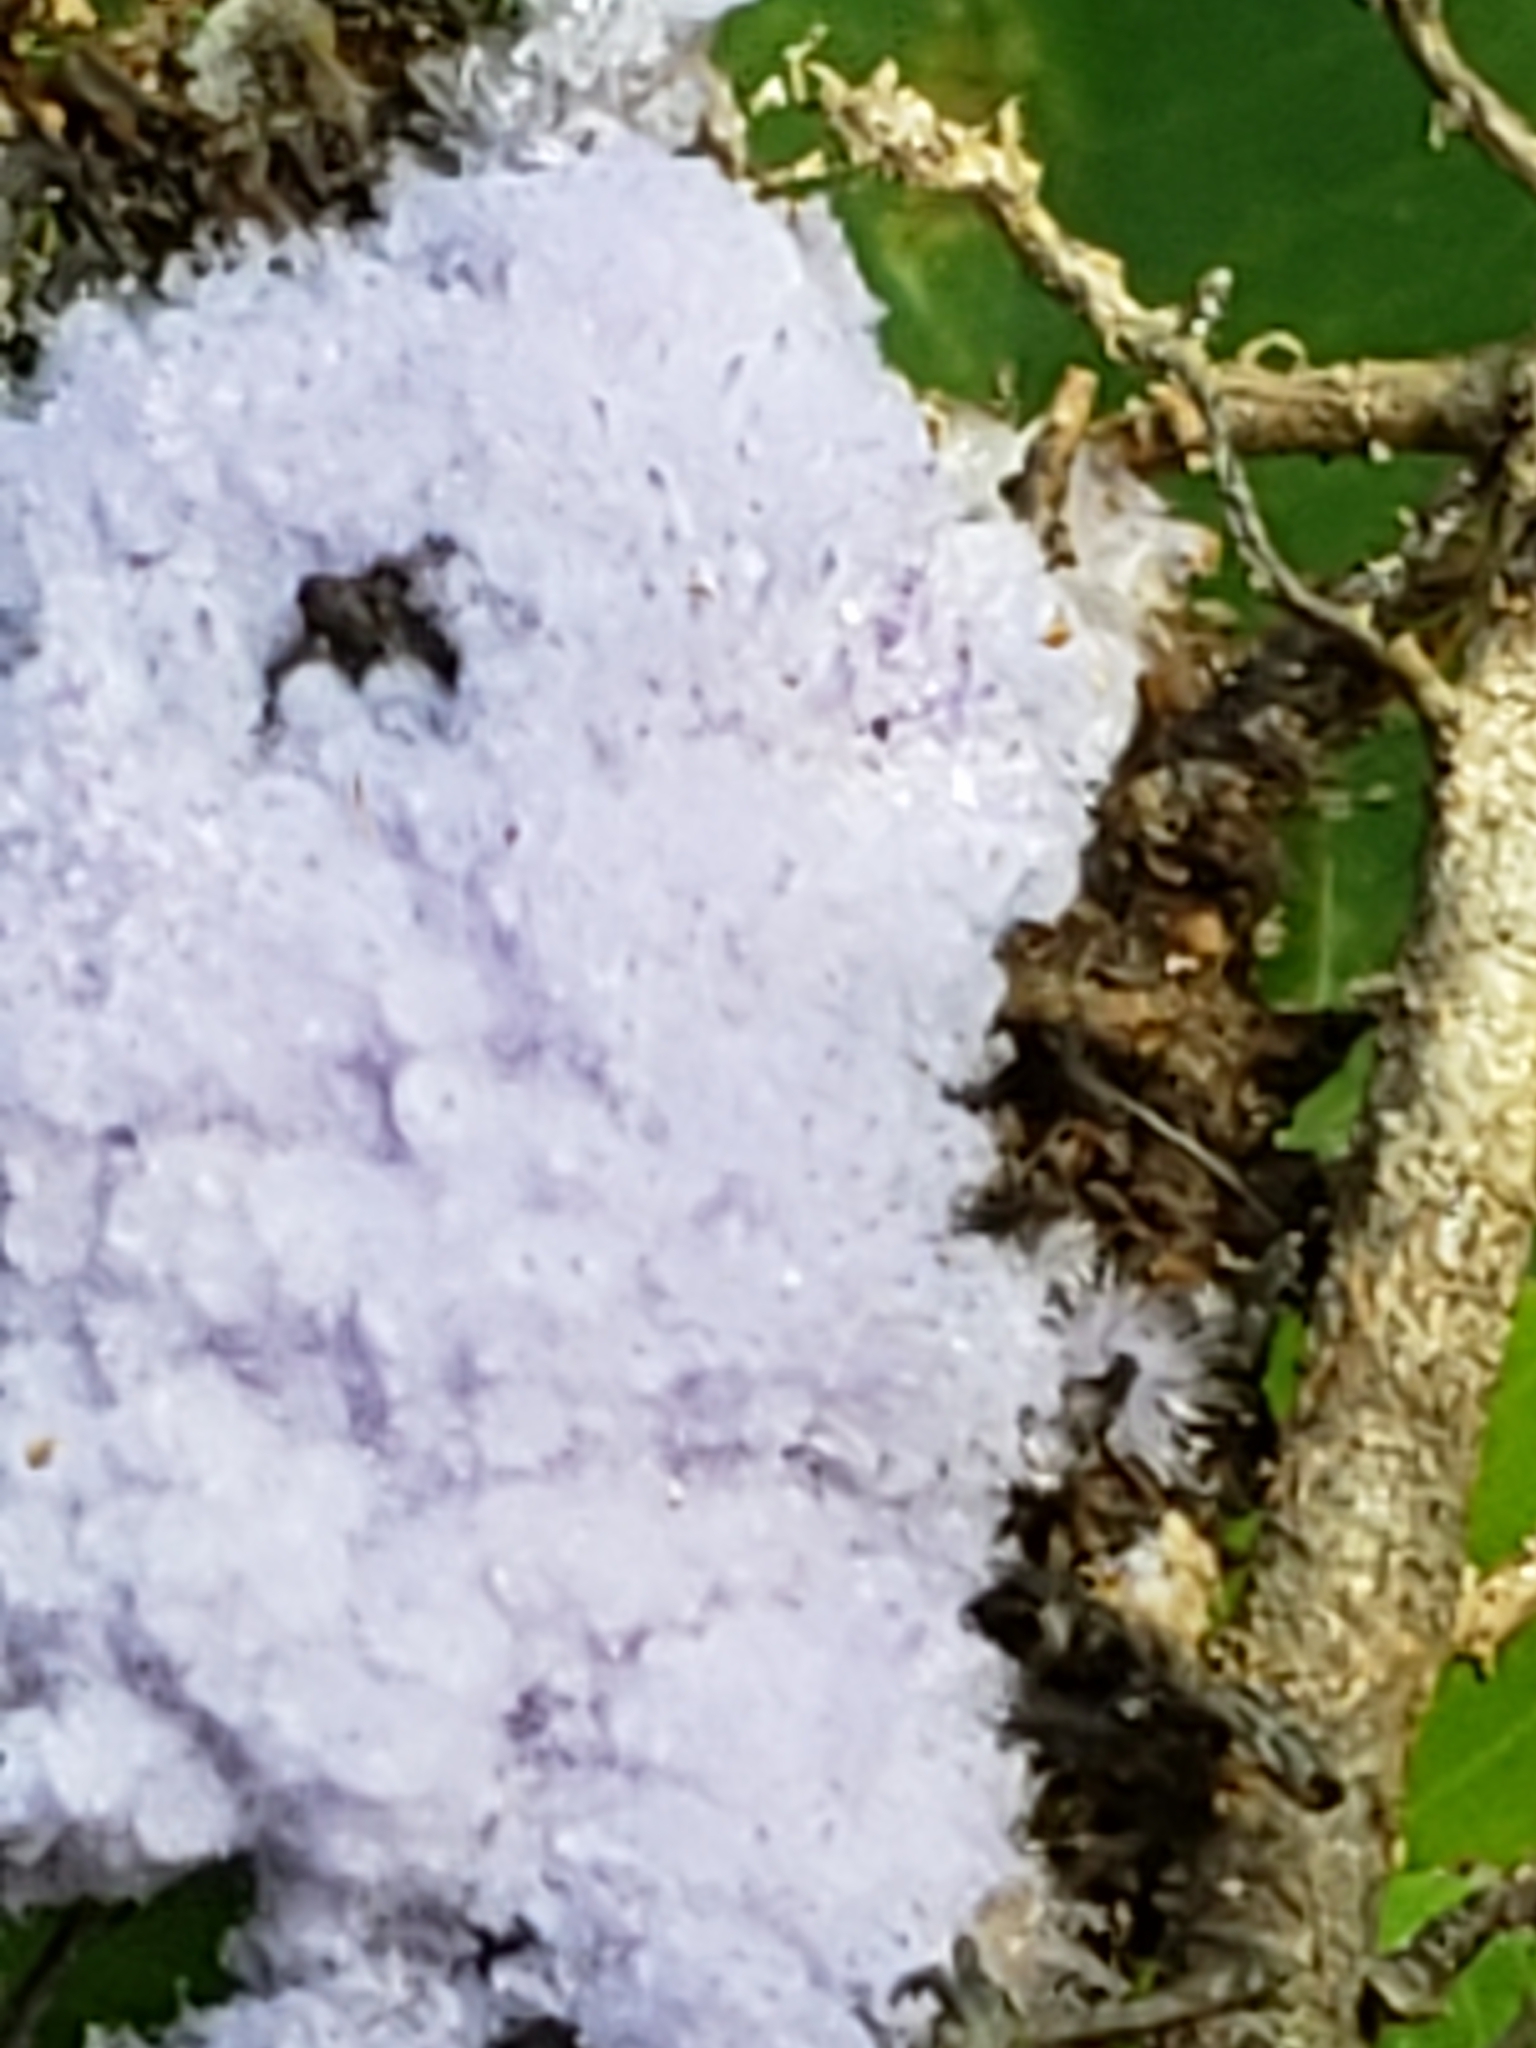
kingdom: Fungi
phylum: Ascomycota
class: Pezizomycetes
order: Pezizales
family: Pezizaceae
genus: Chromelosporiopsis
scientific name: Chromelosporiopsis coerulescens
